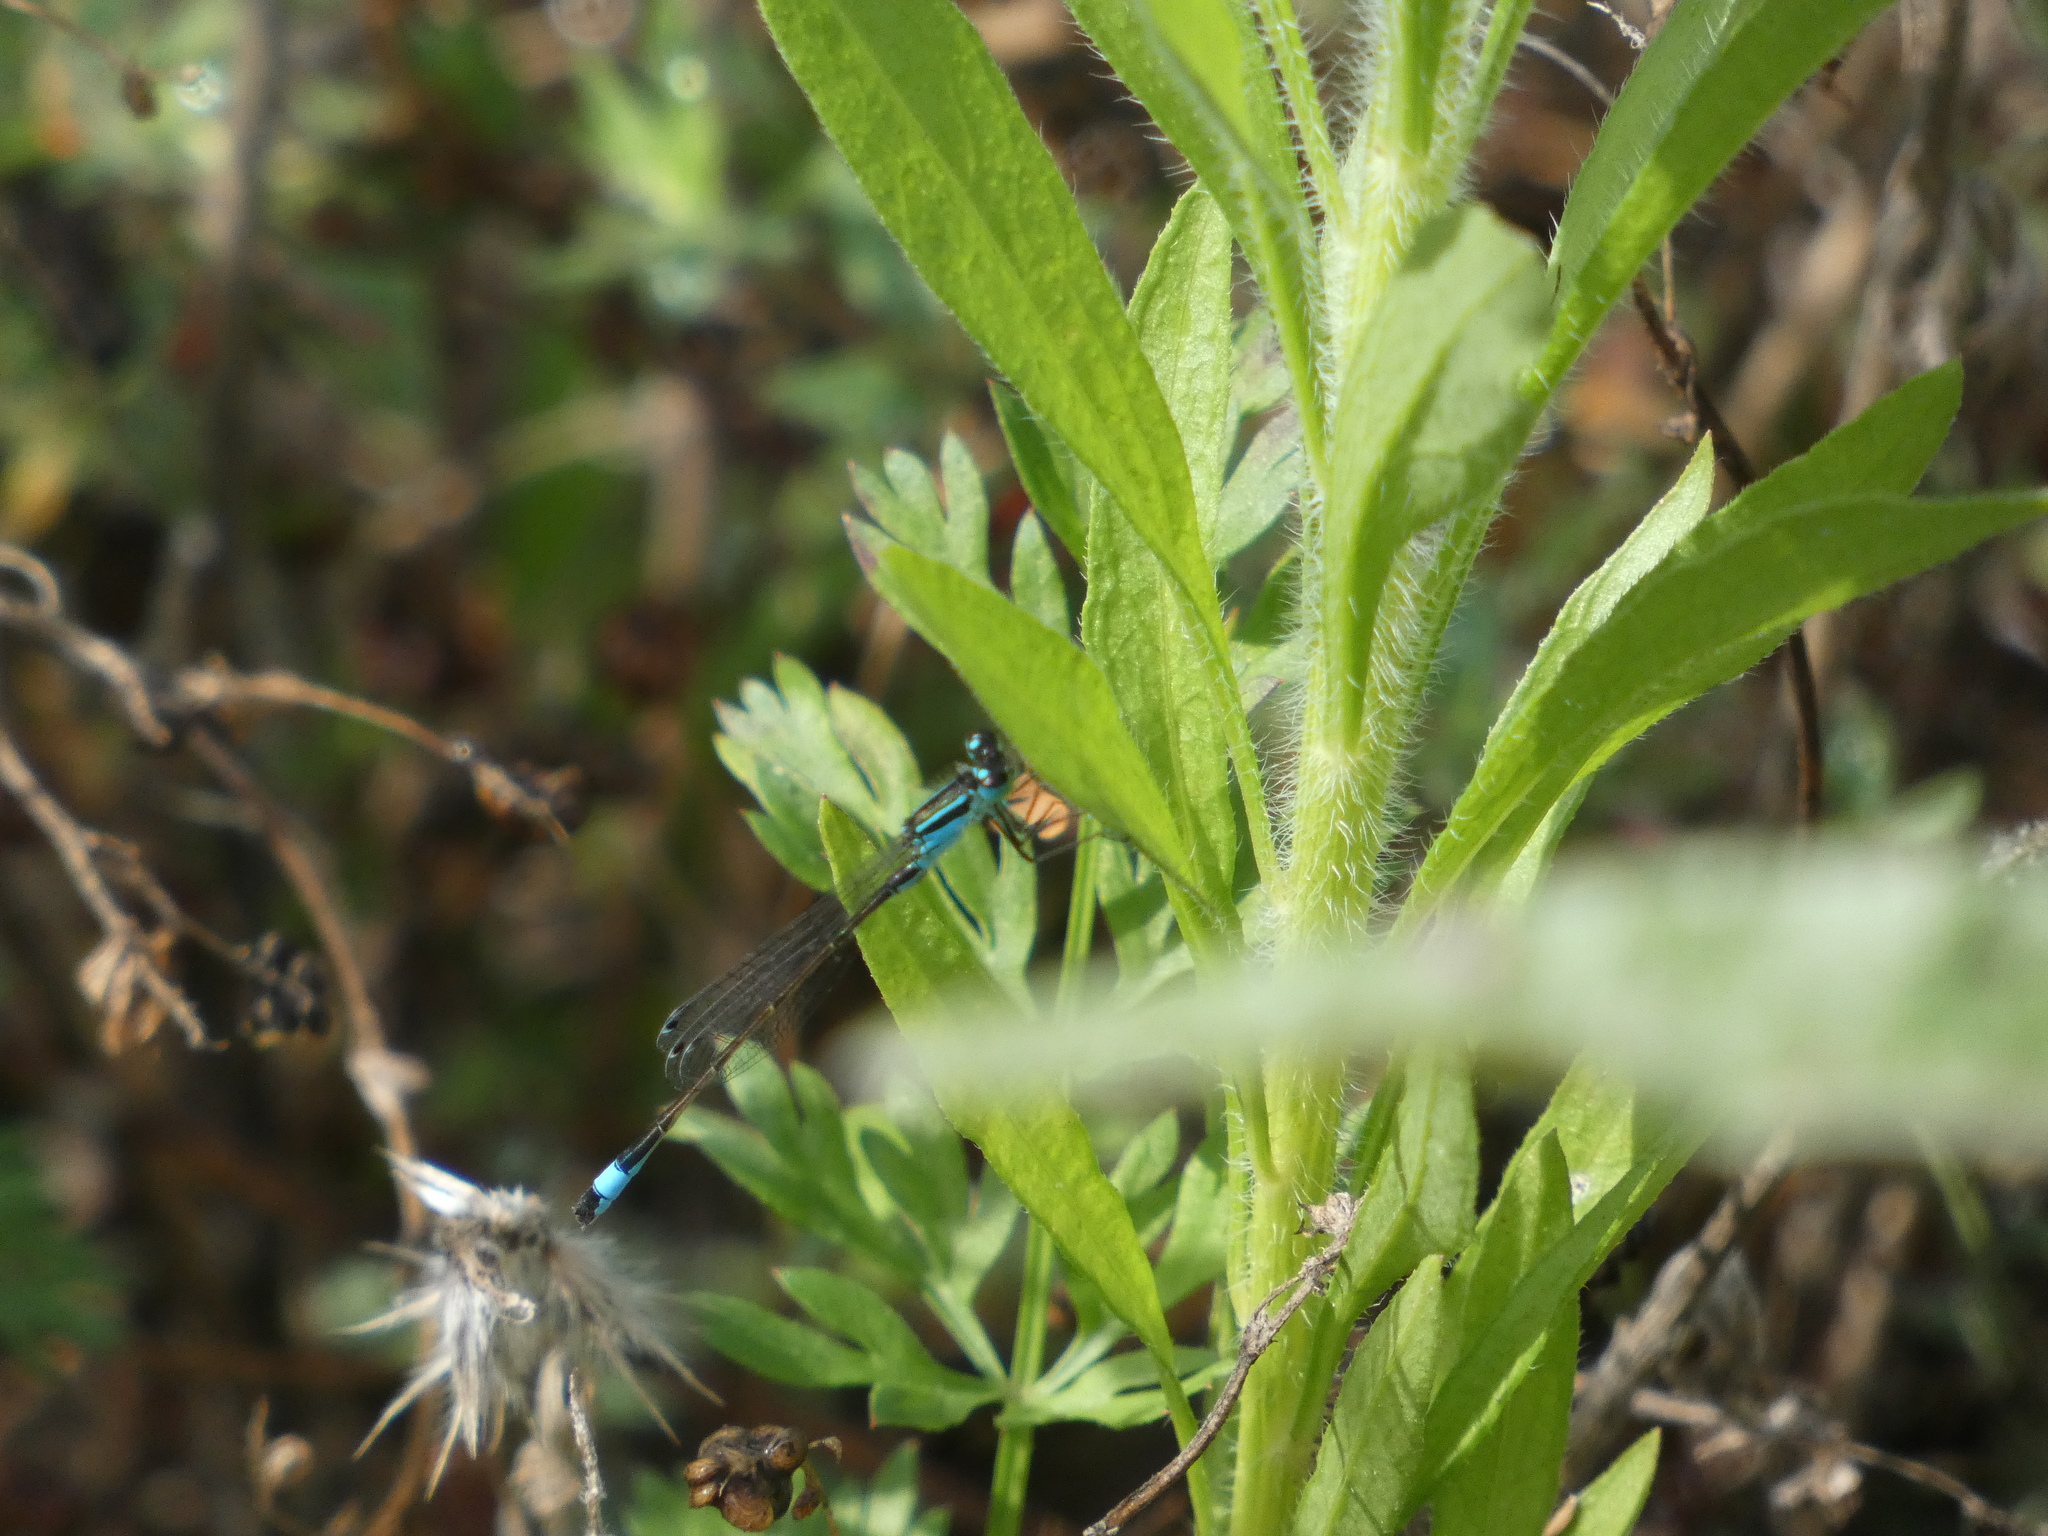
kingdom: Animalia
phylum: Arthropoda
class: Insecta
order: Odonata
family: Coenagrionidae
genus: Ischnura
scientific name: Ischnura elegans
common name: Blue-tailed damselfly
